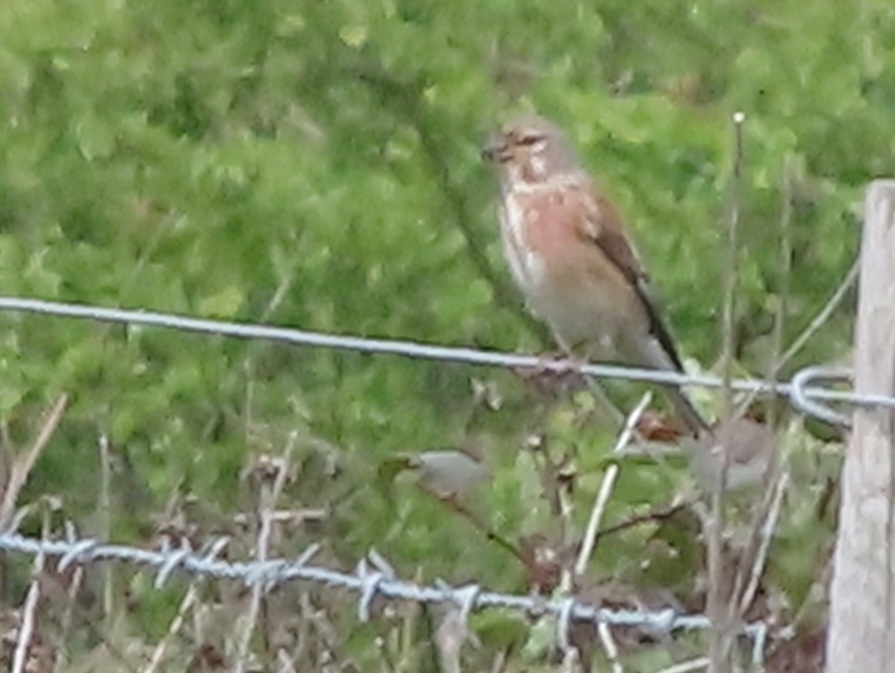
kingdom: Animalia
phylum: Chordata
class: Aves
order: Passeriformes
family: Fringillidae
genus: Linaria
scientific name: Linaria cannabina
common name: Common linnet
